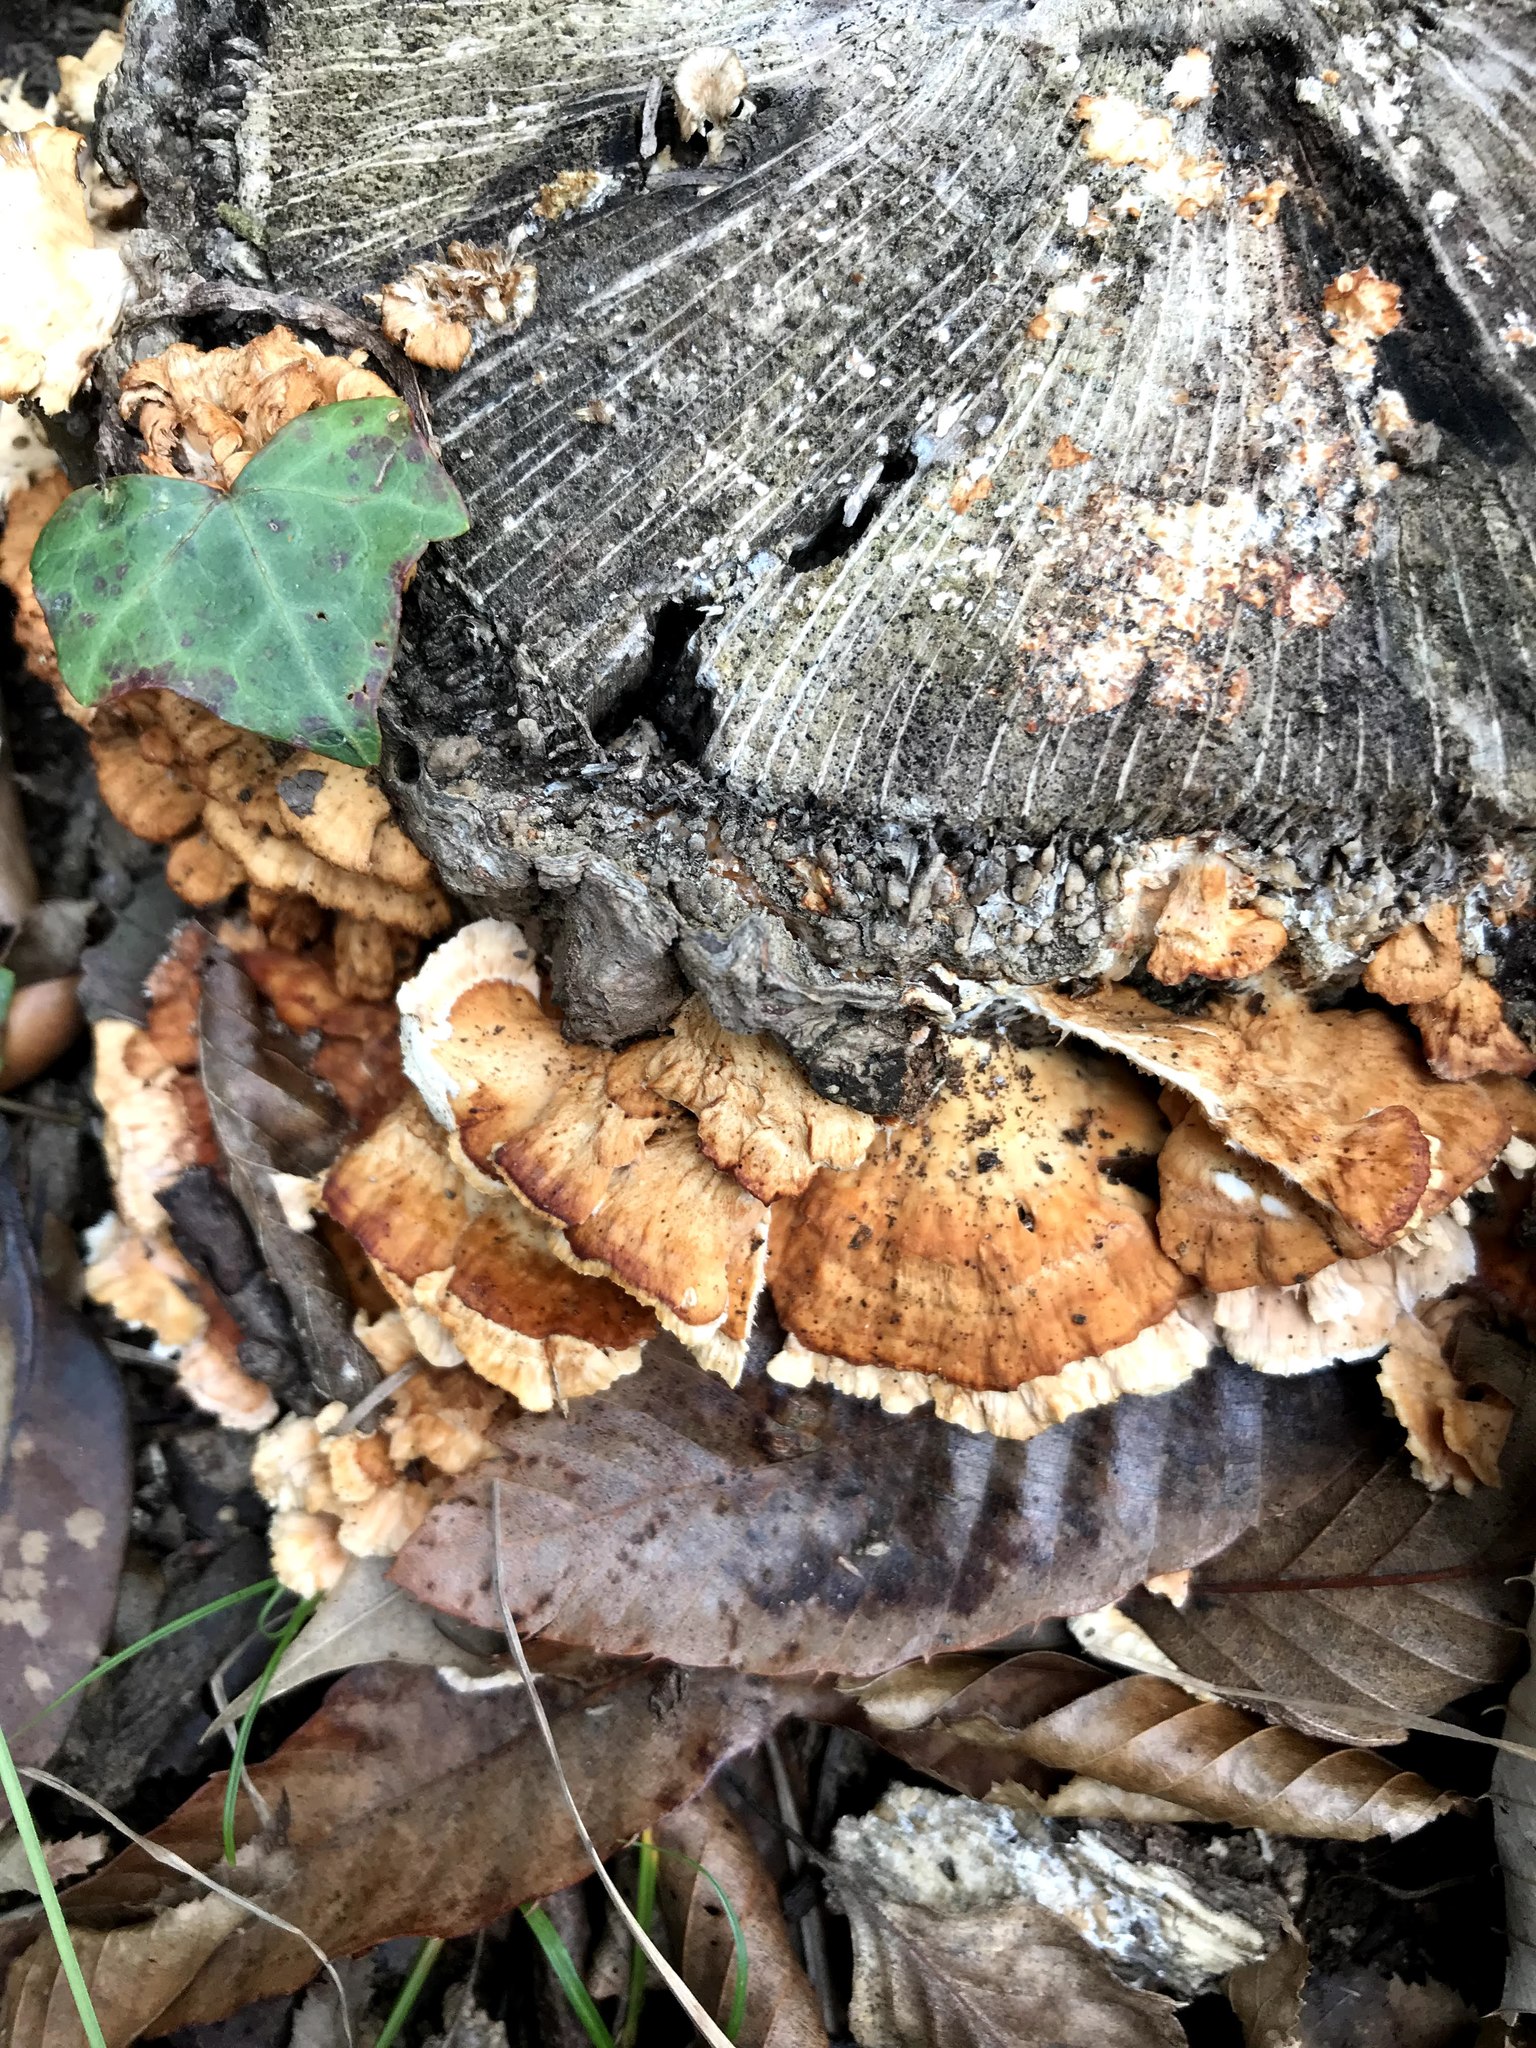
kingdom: Fungi
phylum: Basidiomycota
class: Agaricomycetes
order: Polyporales
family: Irpicaceae
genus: Irpex
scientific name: Irpex consors
